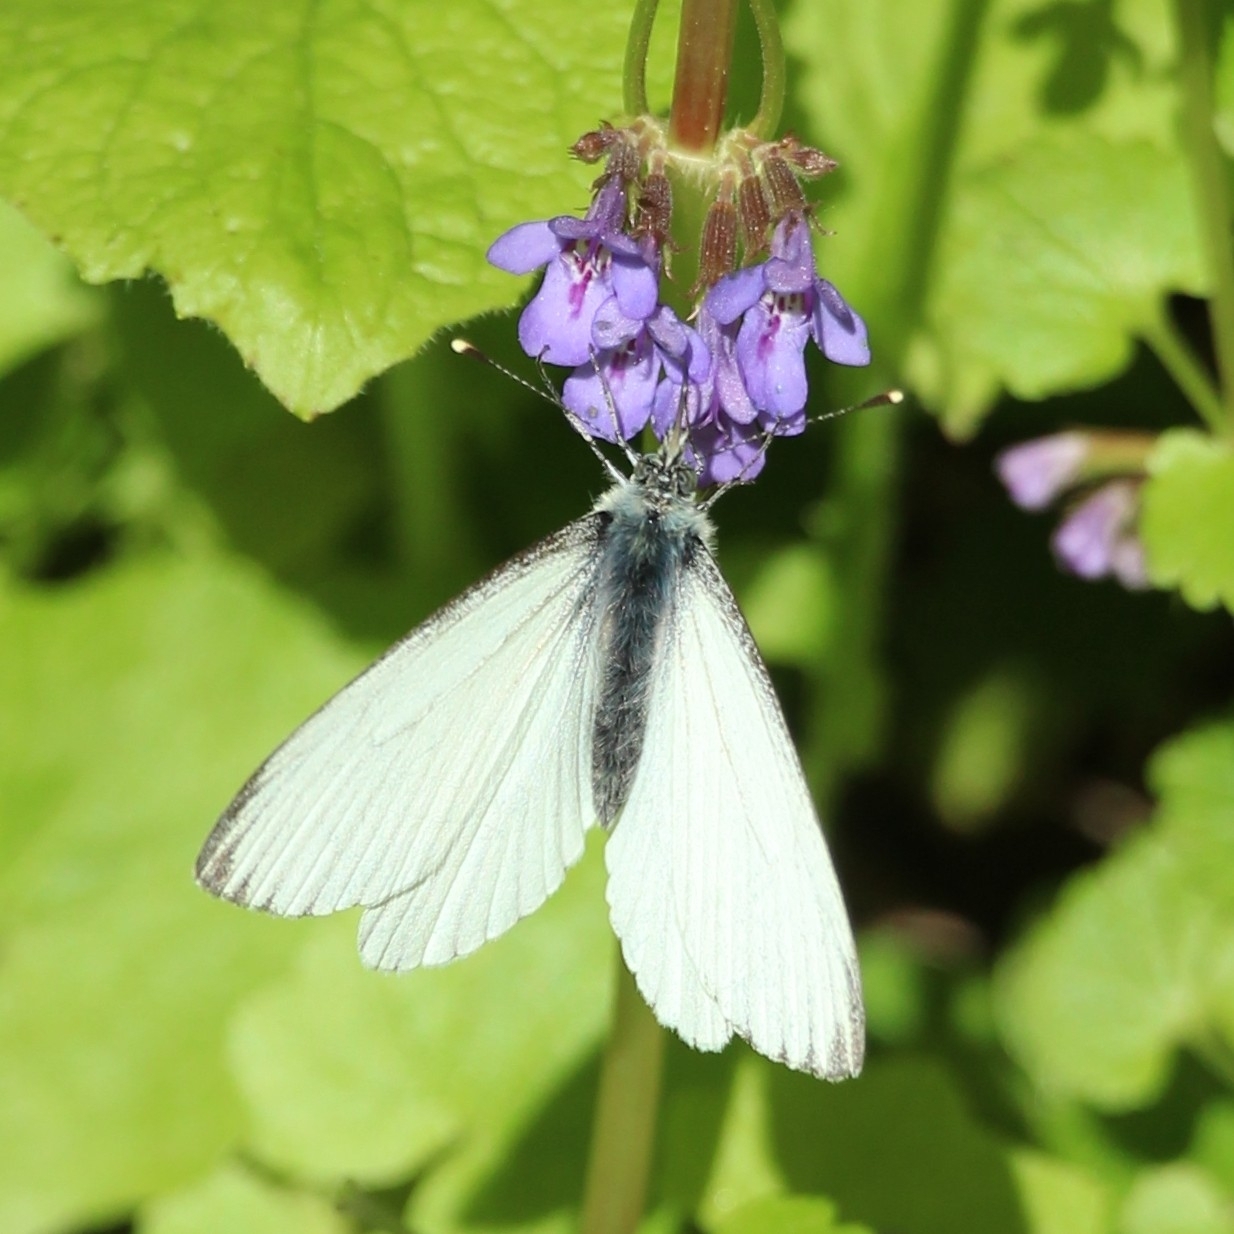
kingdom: Animalia
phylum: Arthropoda
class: Insecta
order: Lepidoptera
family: Pieridae
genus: Pieris
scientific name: Pieris napi
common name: Green-veined white
